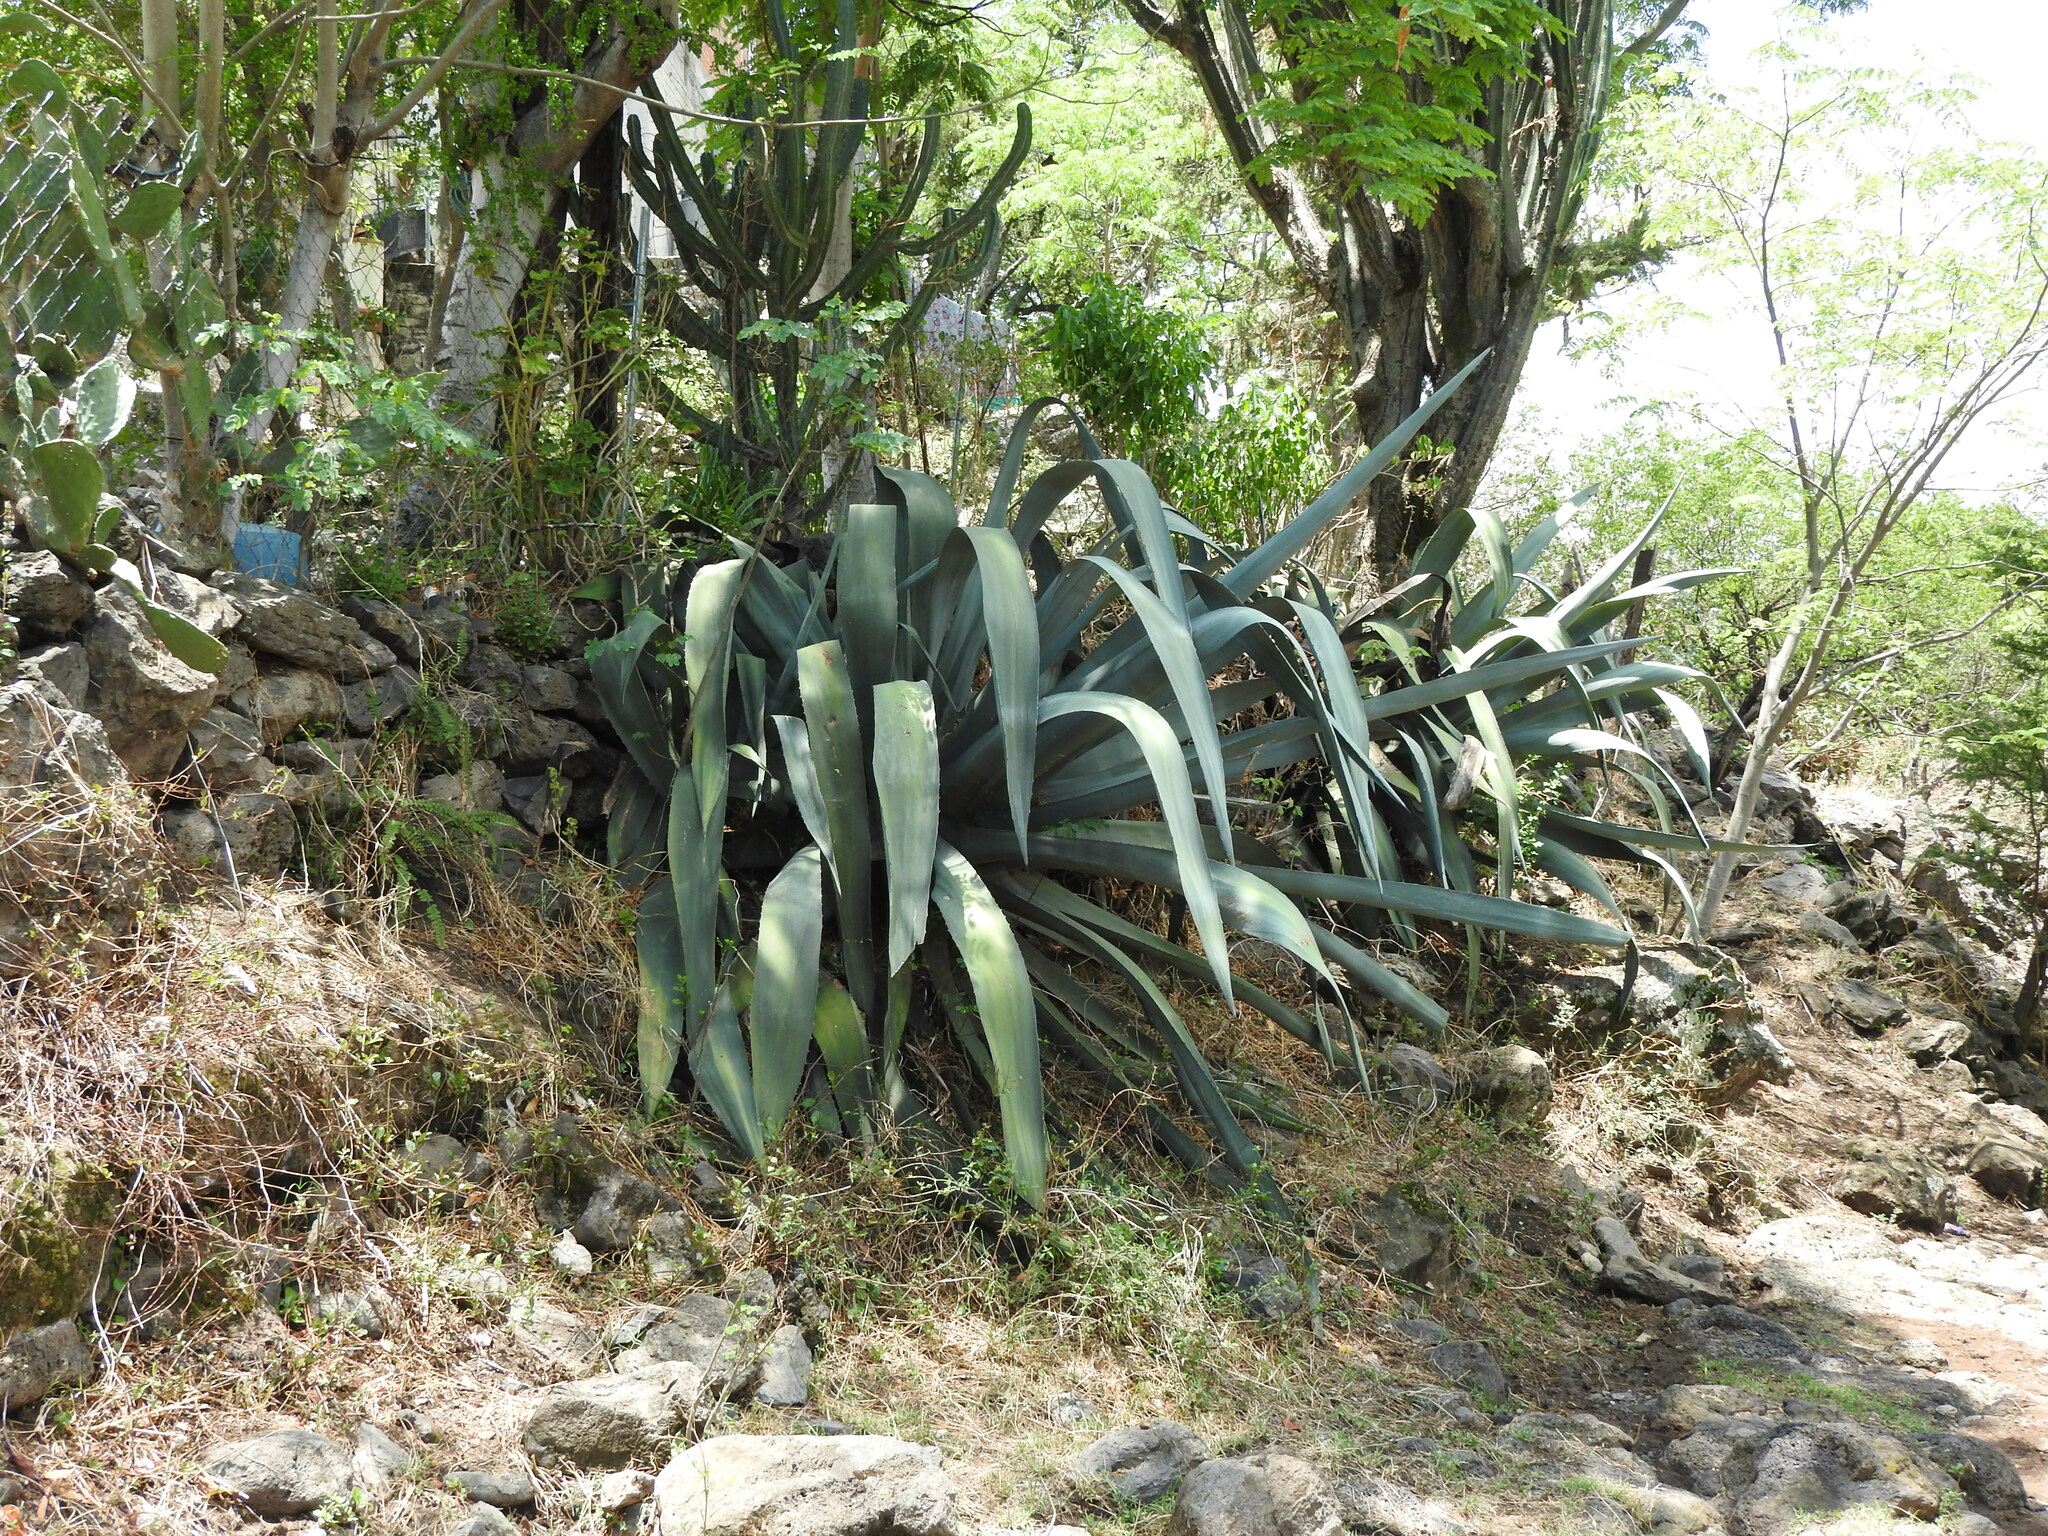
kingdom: Plantae
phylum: Tracheophyta
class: Liliopsida
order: Asparagales
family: Asparagaceae
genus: Agave
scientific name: Agave mapisaga
